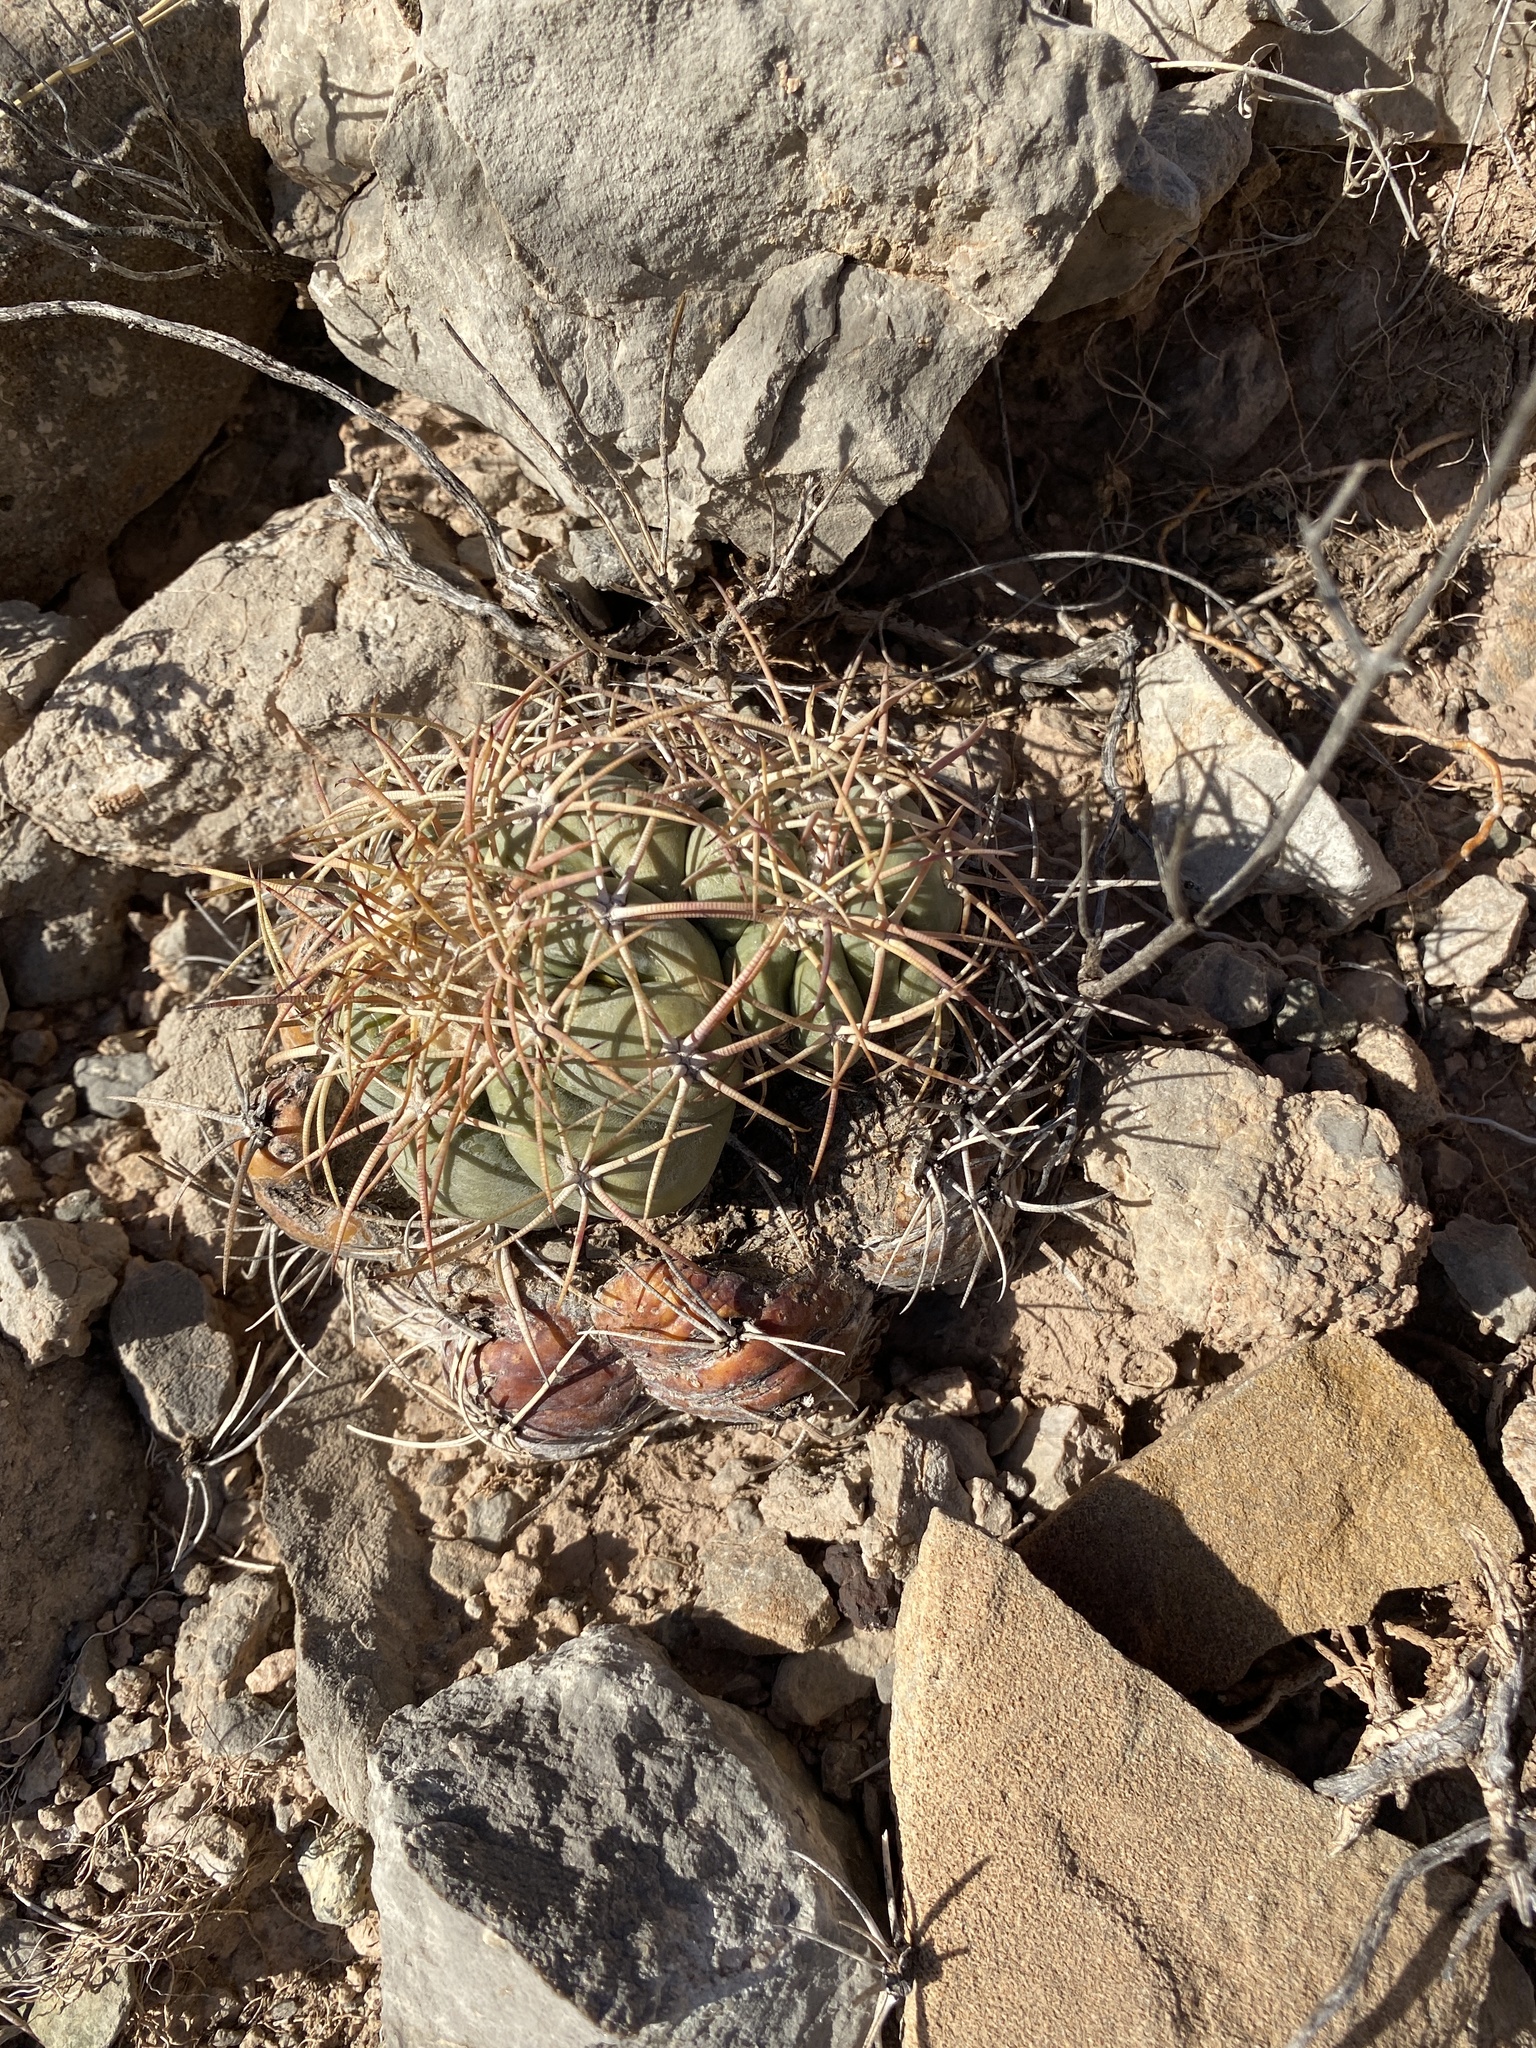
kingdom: Plantae
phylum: Tracheophyta
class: Magnoliopsida
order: Caryophyllales
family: Cactaceae
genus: Echinocactus
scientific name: Echinocactus horizonthalonius
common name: Devilshead
